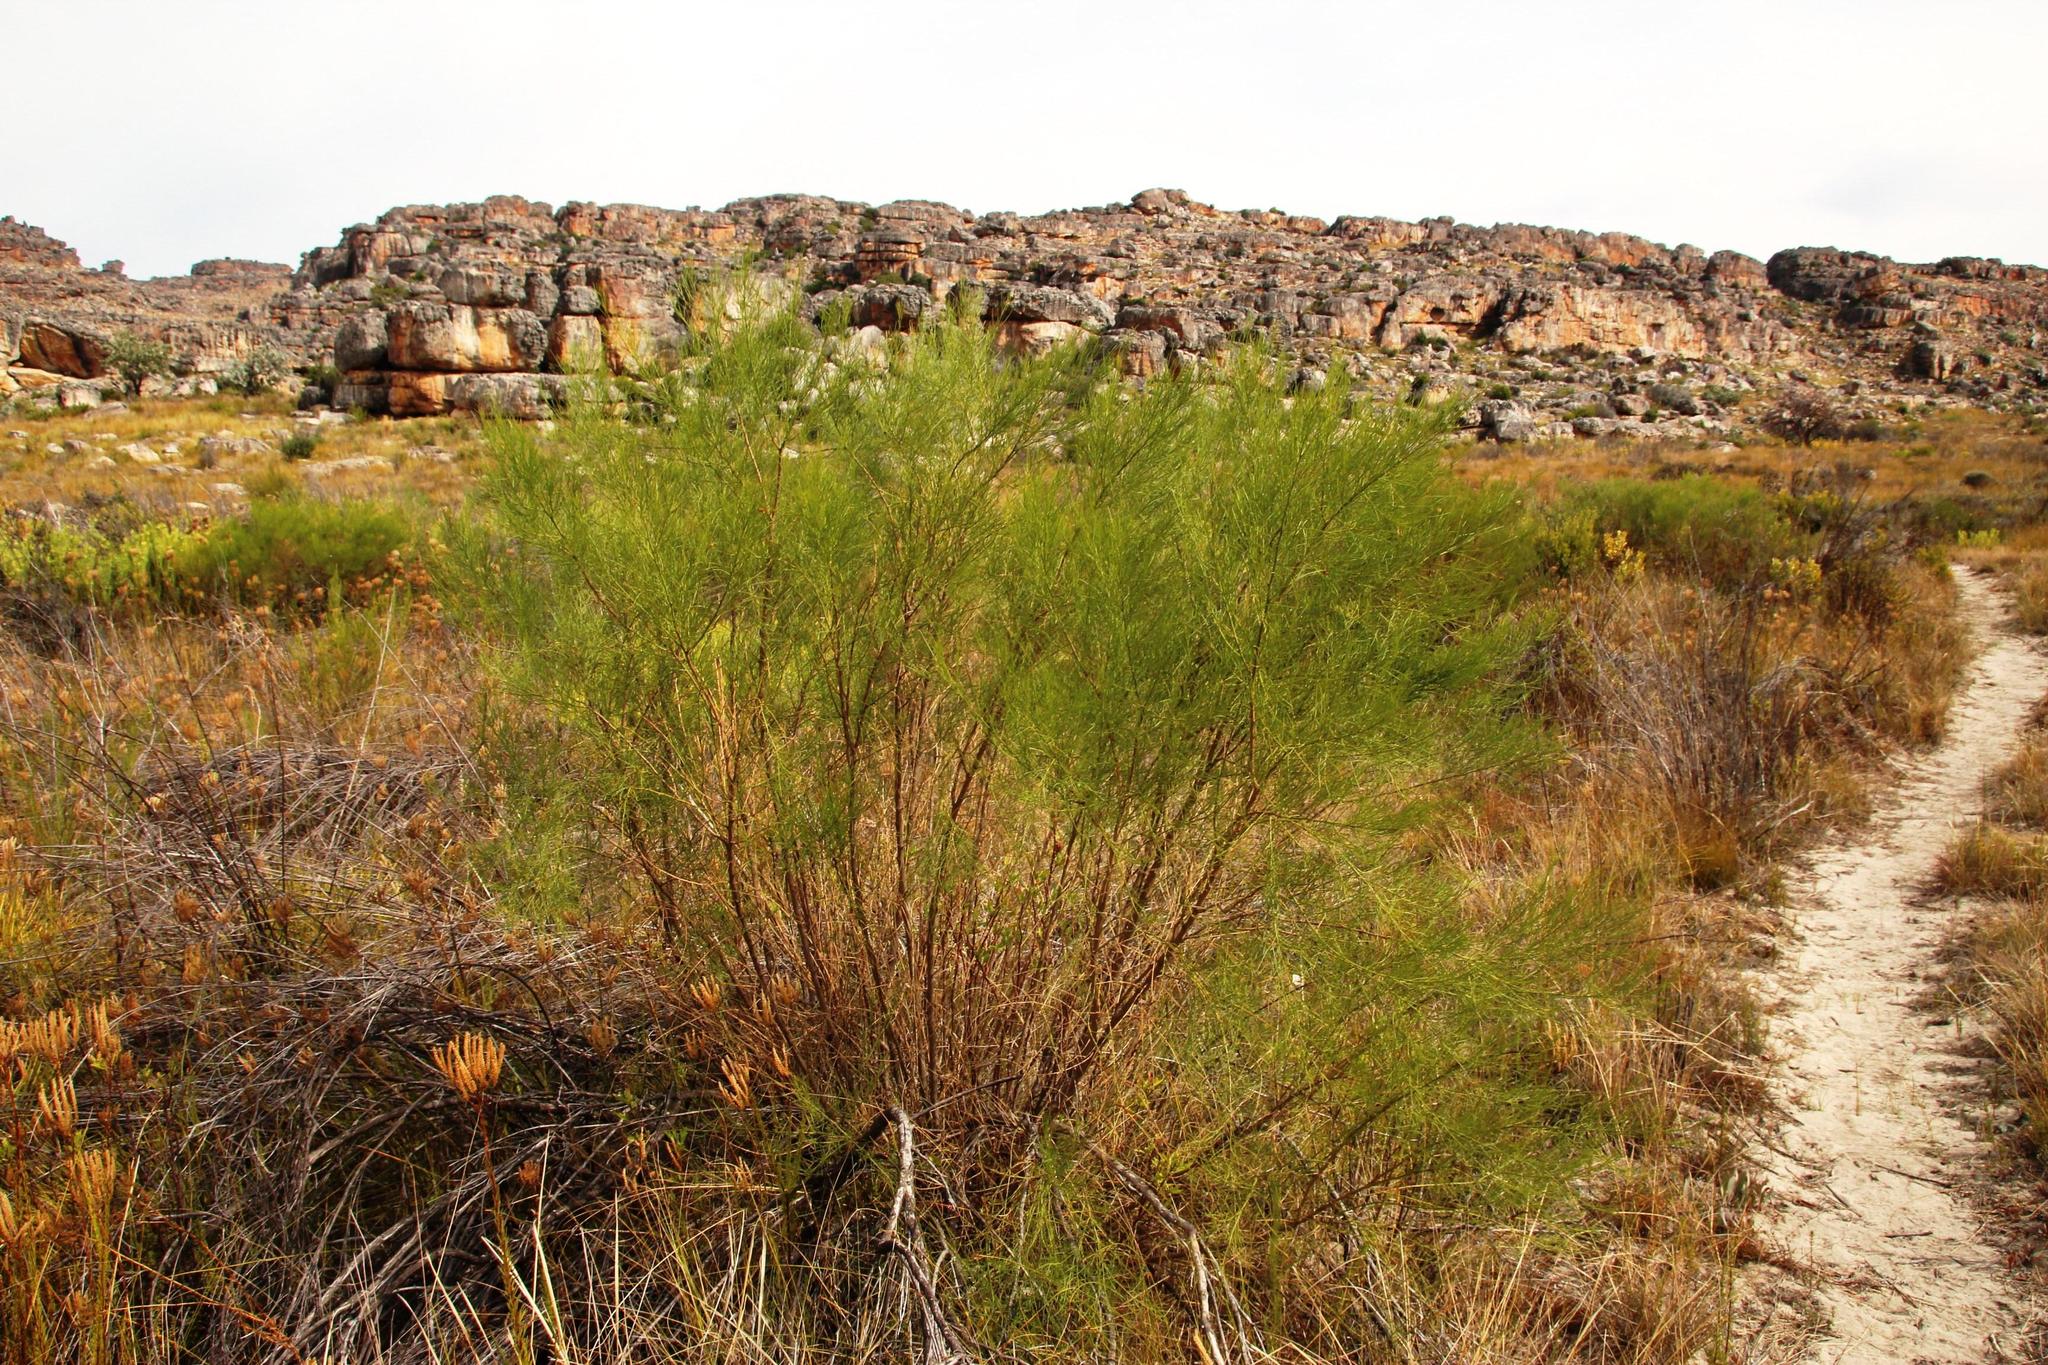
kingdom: Plantae
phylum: Tracheophyta
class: Magnoliopsida
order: Fabales
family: Fabaceae
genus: Psoralea
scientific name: Psoralea
